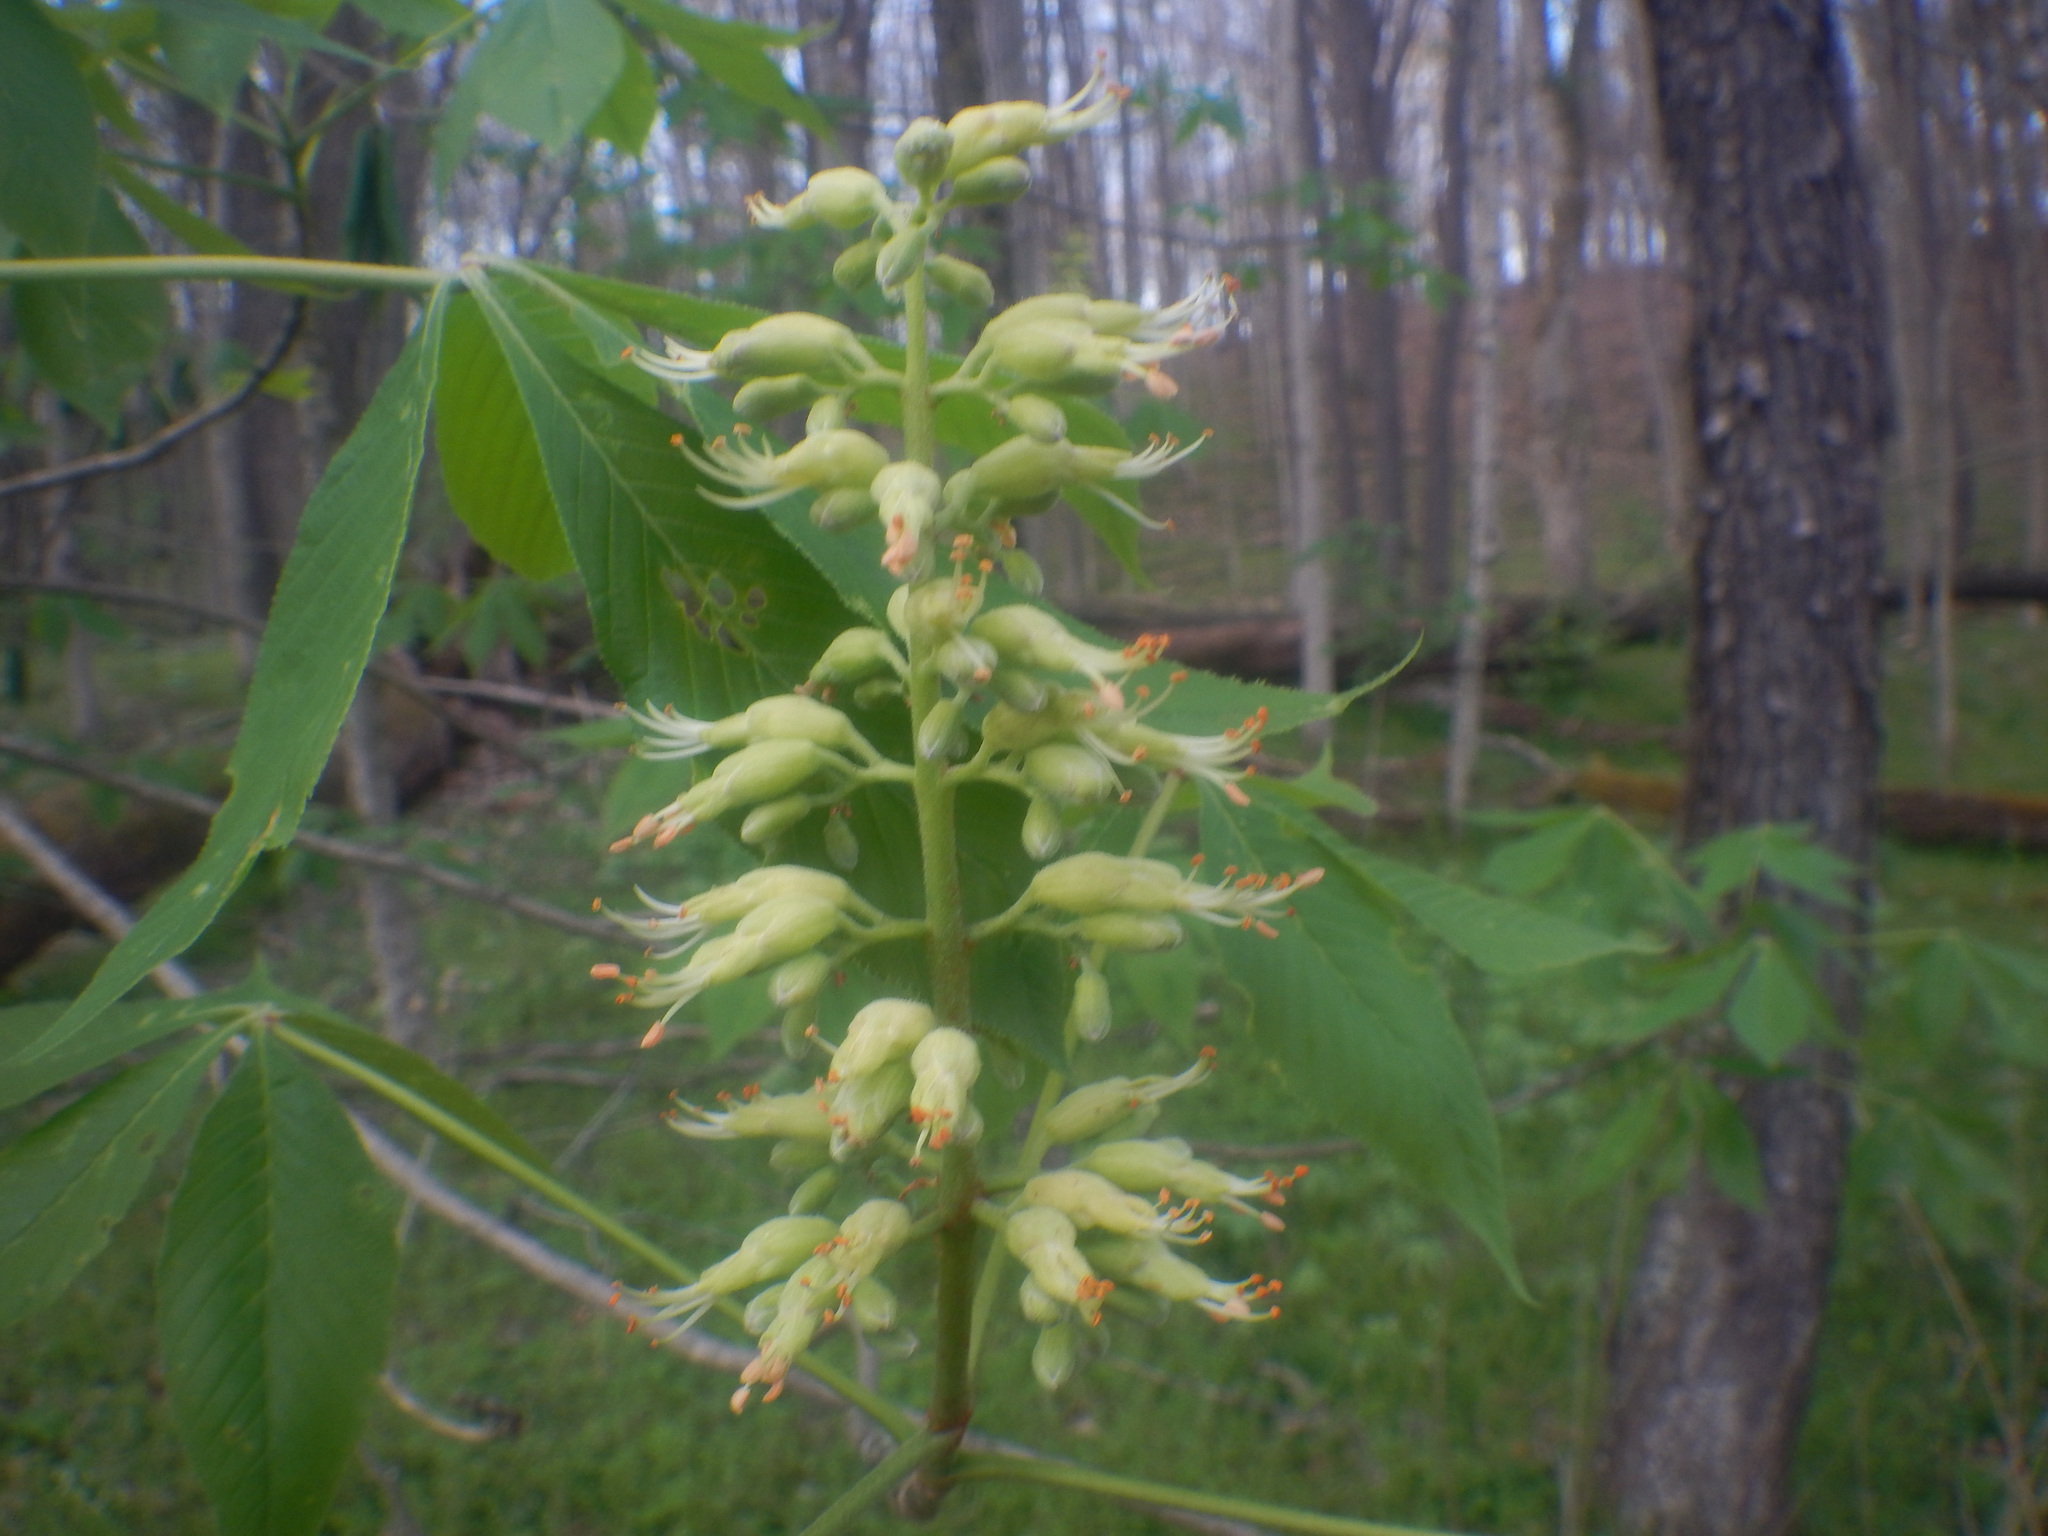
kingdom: Plantae
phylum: Tracheophyta
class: Magnoliopsida
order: Sapindales
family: Sapindaceae
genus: Aesculus
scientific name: Aesculus glabra
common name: Ohio buckeye
